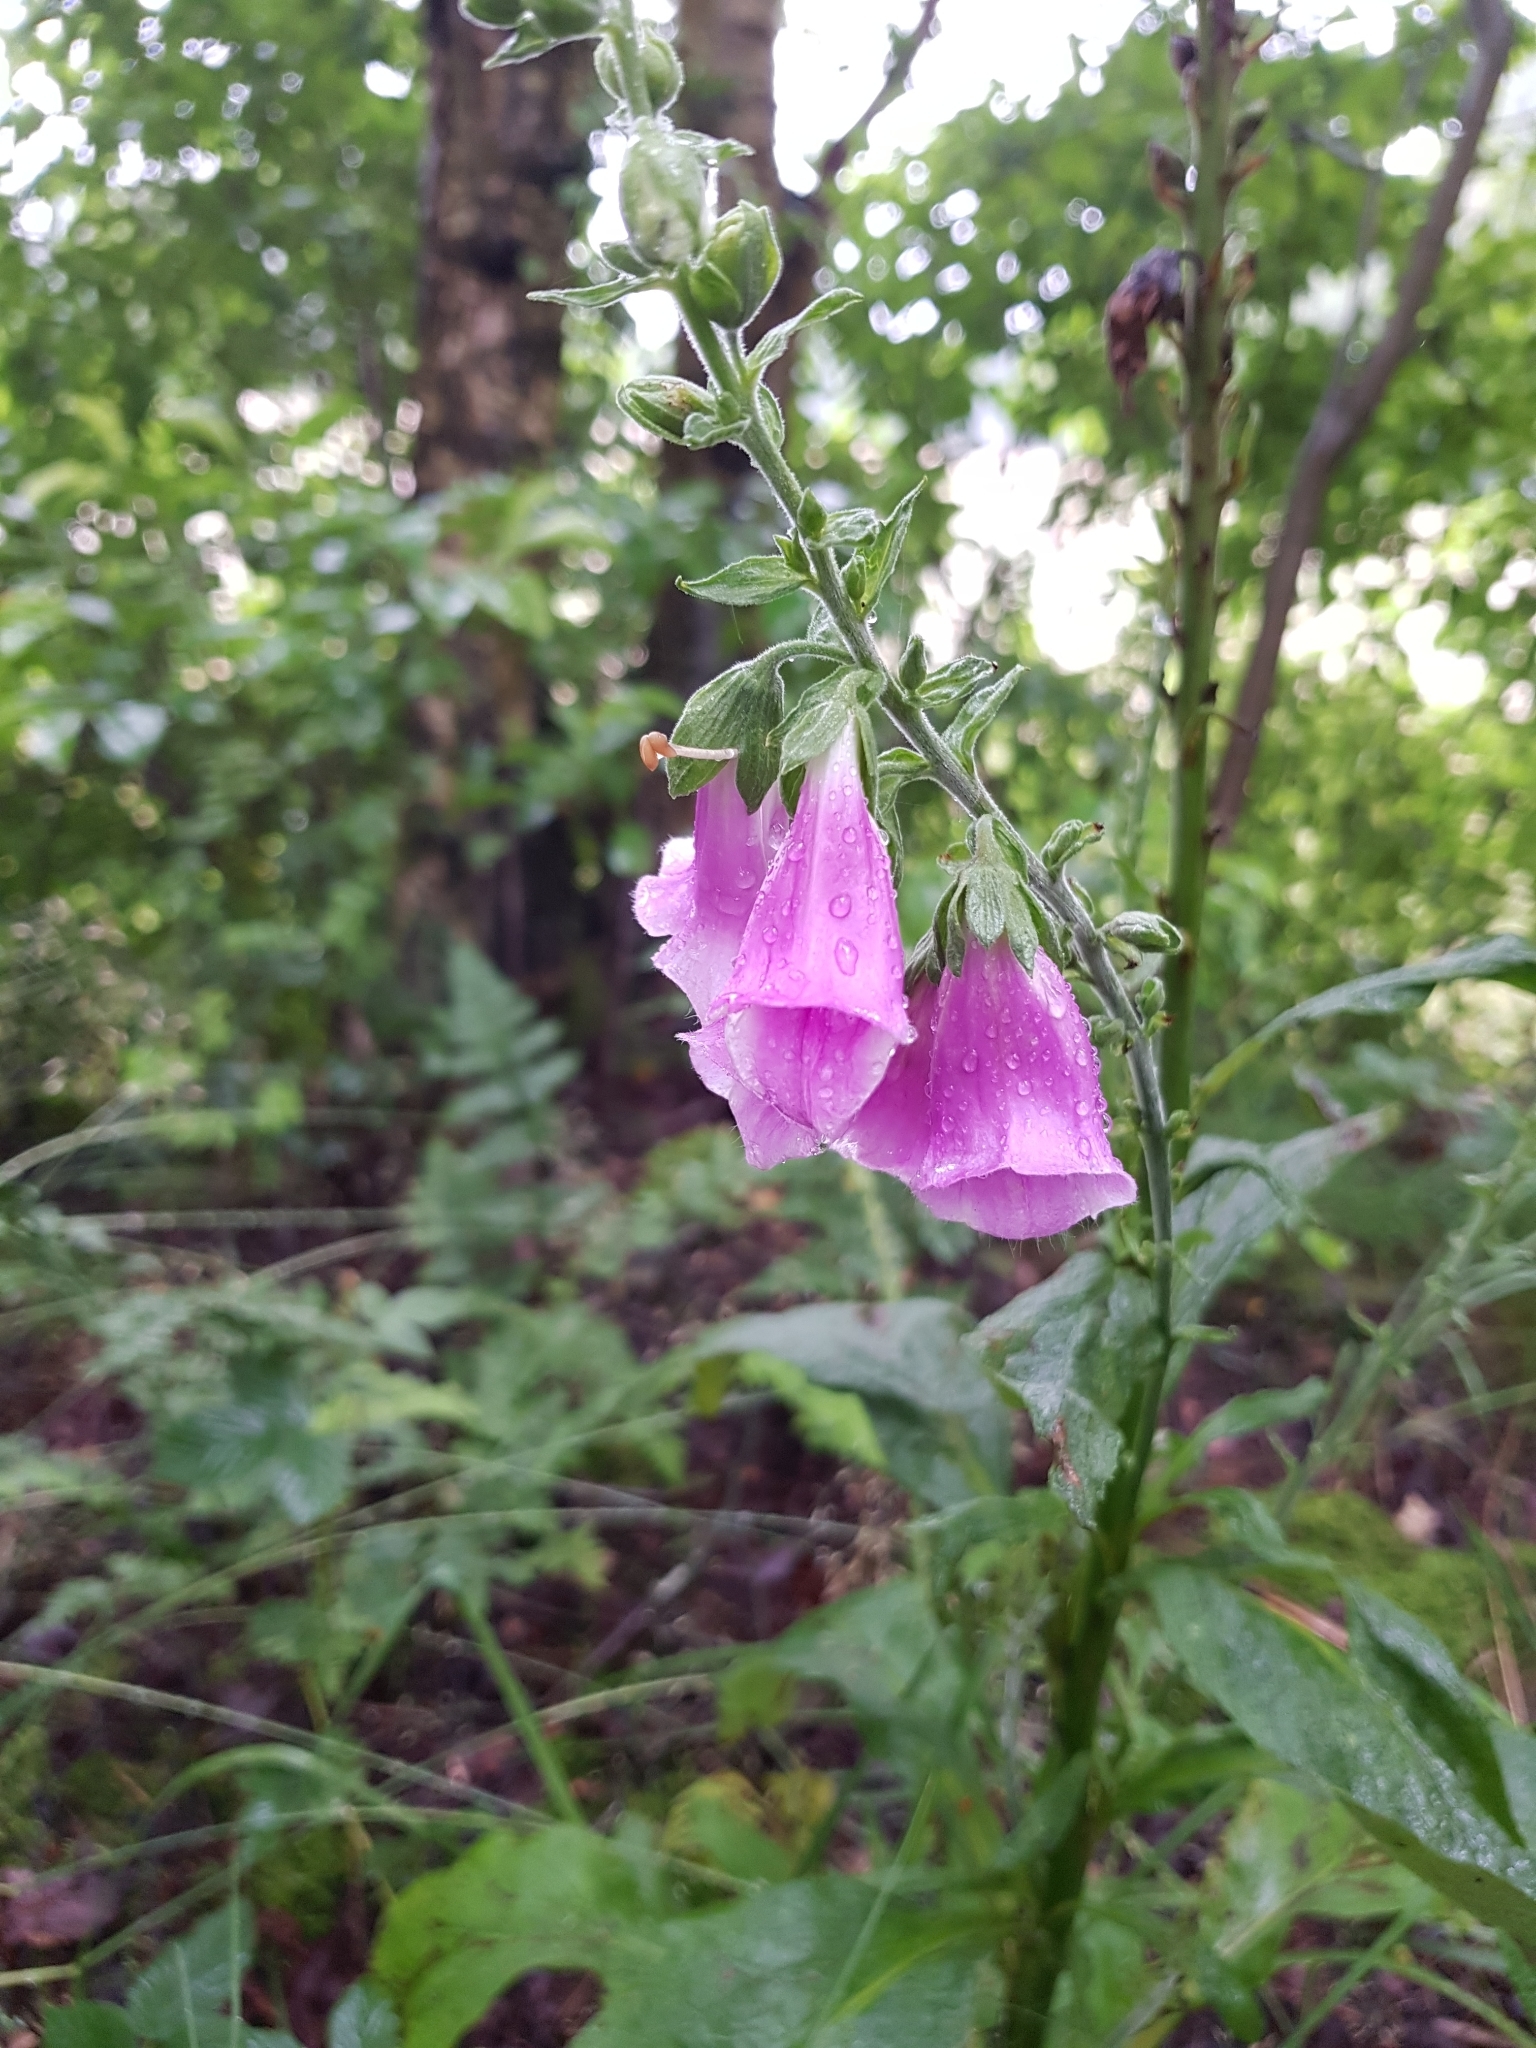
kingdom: Plantae
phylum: Tracheophyta
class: Magnoliopsida
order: Lamiales
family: Plantaginaceae
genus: Digitalis
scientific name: Digitalis purpurea
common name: Foxglove
